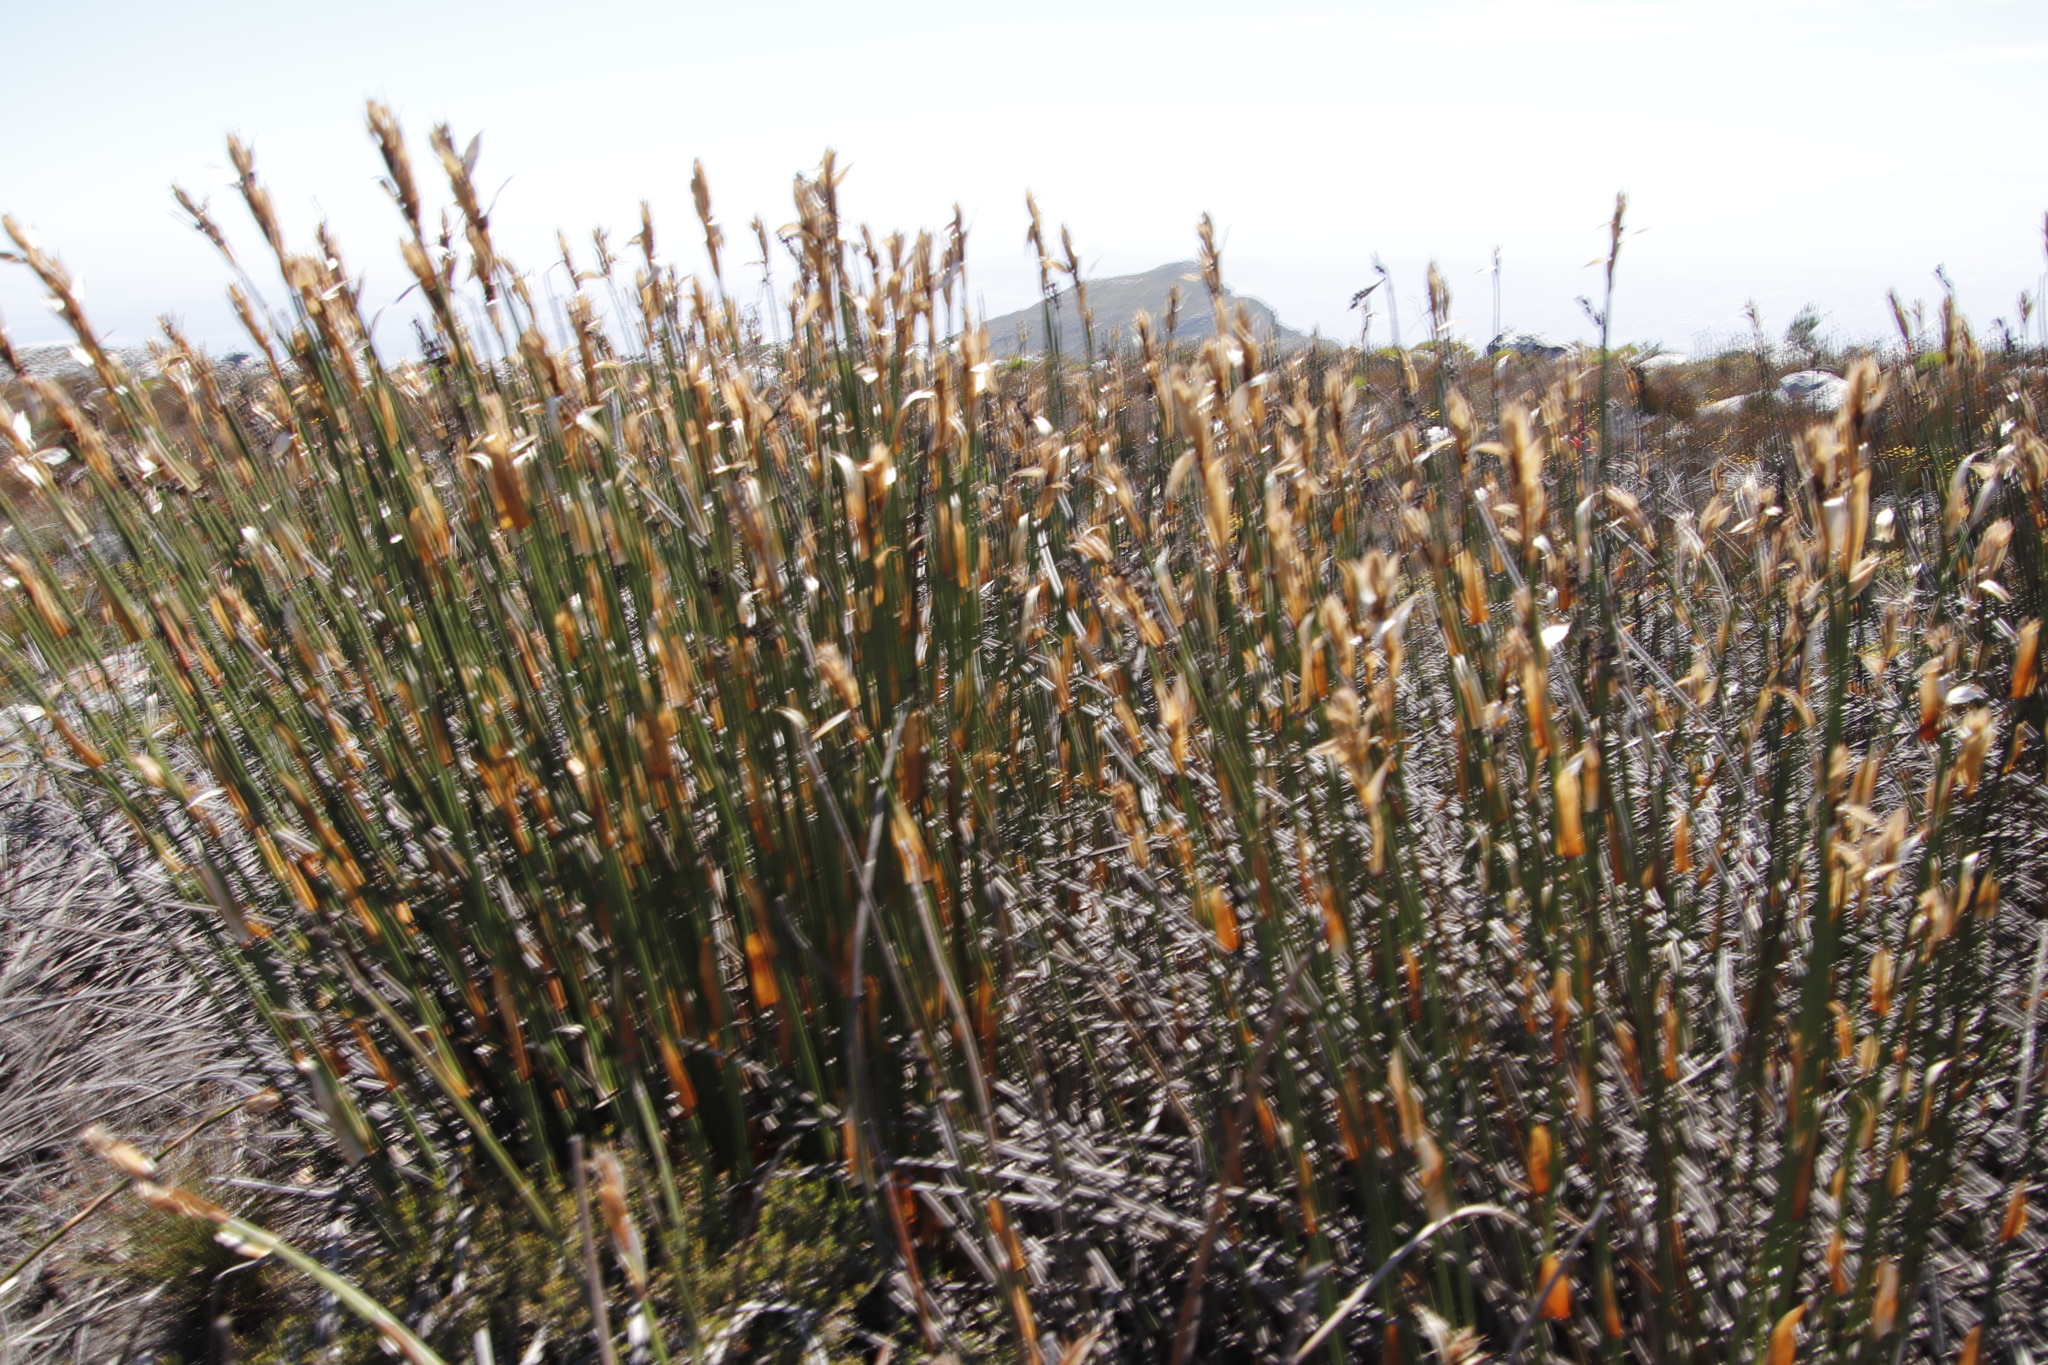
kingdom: Plantae
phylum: Tracheophyta
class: Liliopsida
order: Poales
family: Restionaceae
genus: Elegia
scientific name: Elegia mucronata
